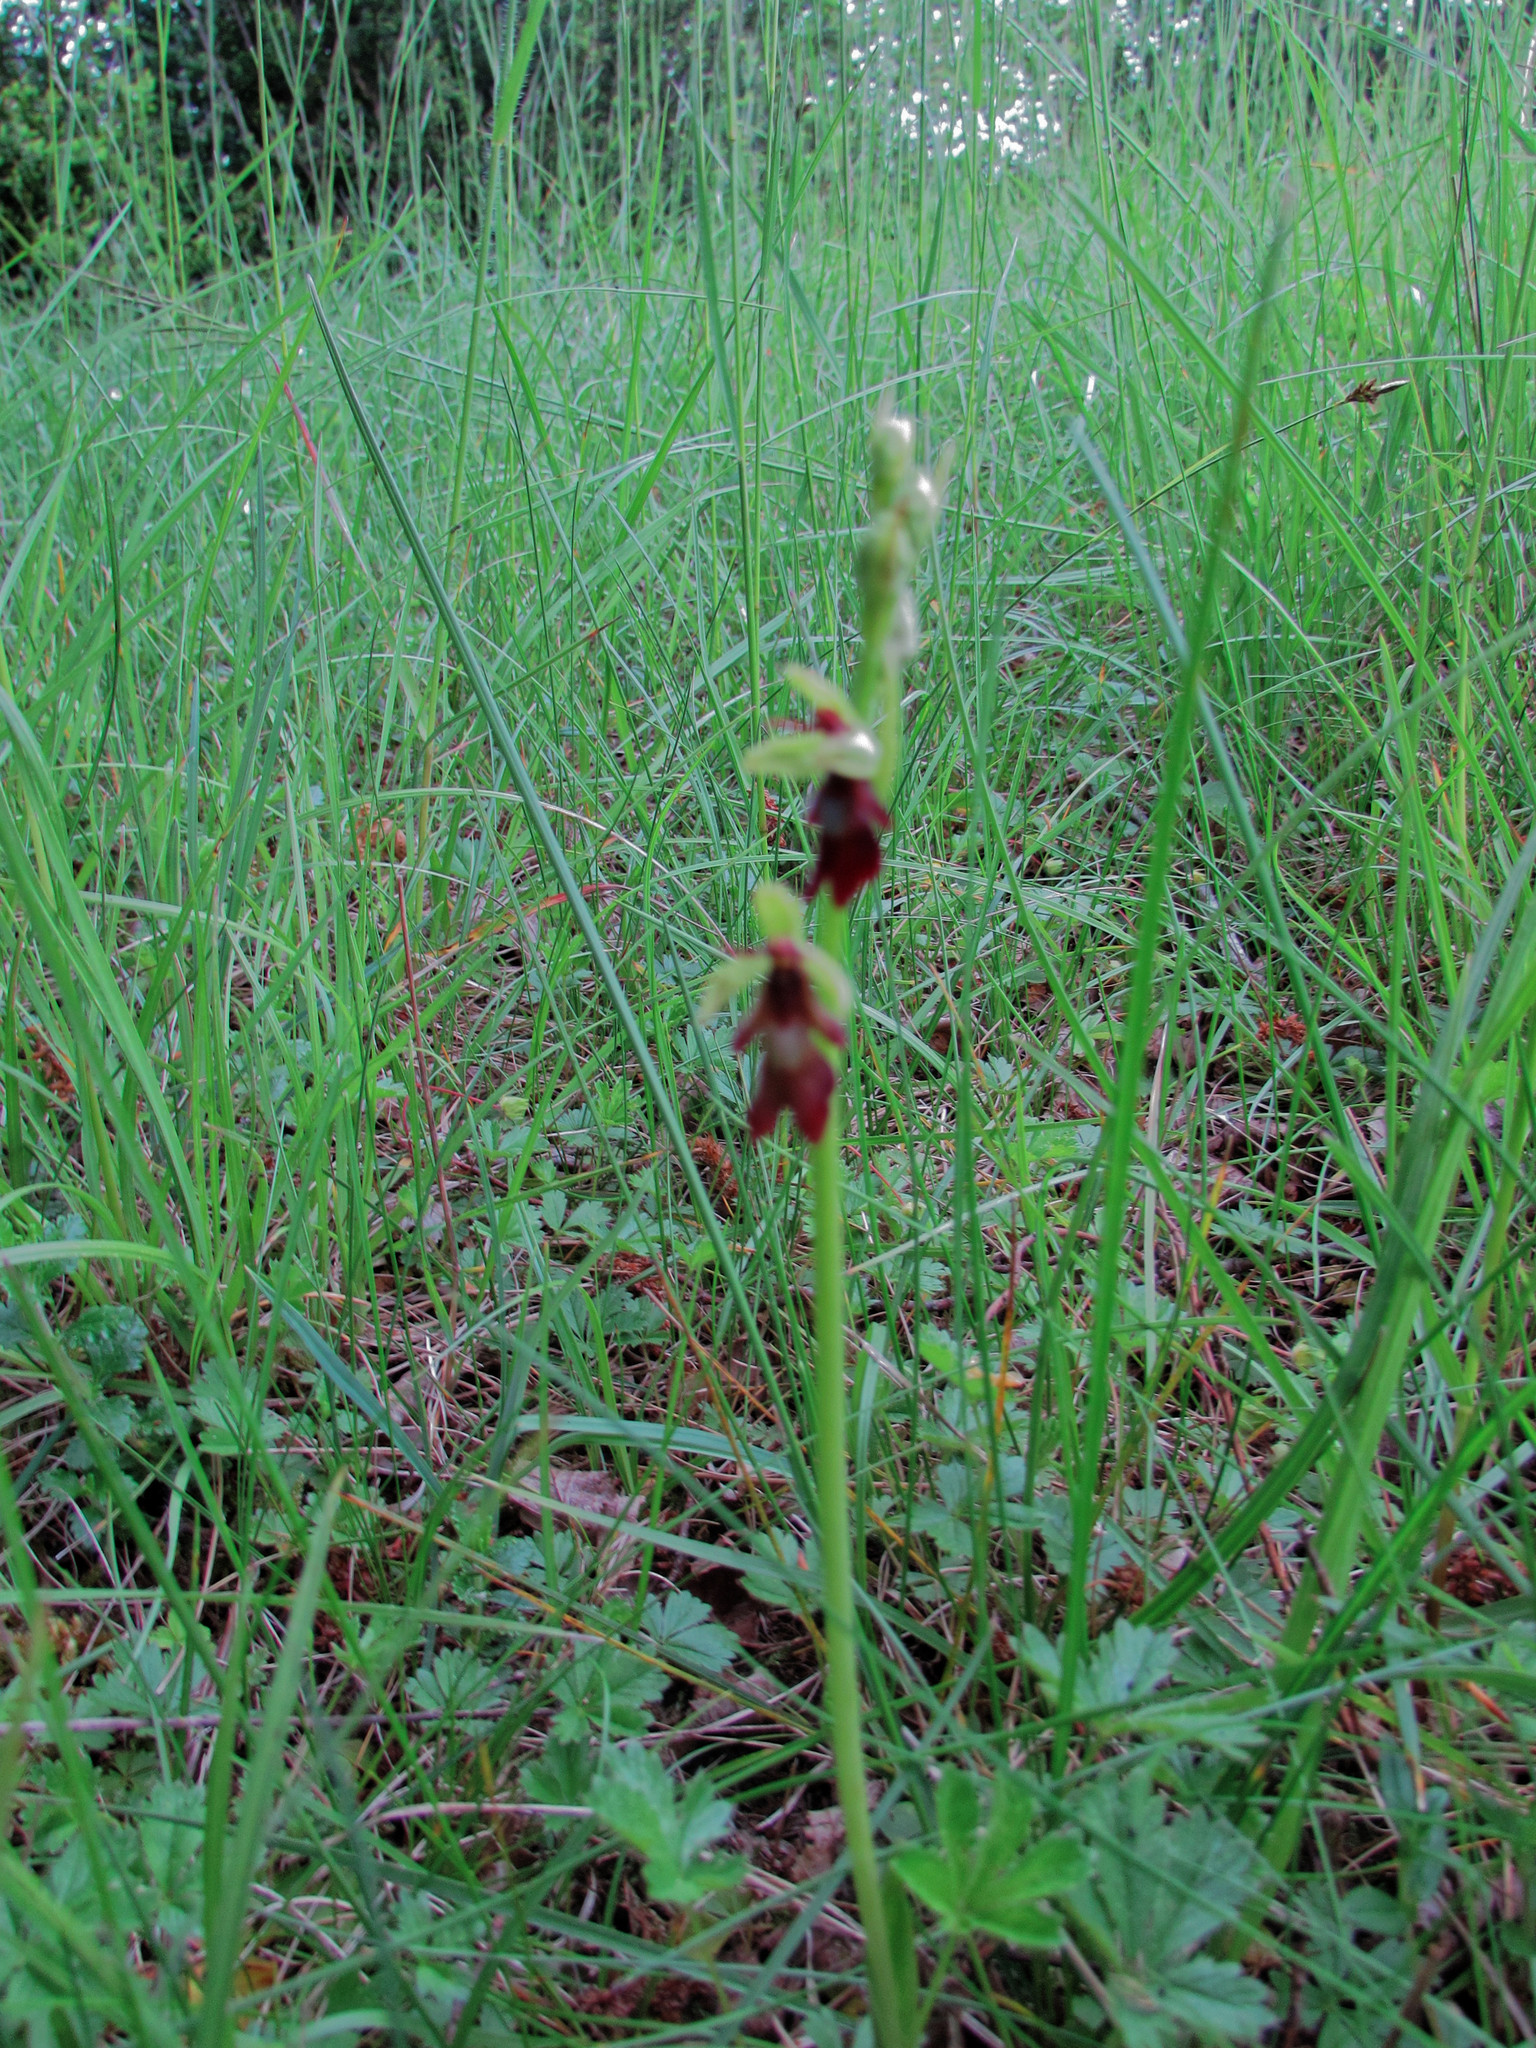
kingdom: Plantae
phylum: Tracheophyta
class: Liliopsida
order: Asparagales
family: Orchidaceae
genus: Ophrys
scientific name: Ophrys insectifera
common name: Fly orchid
